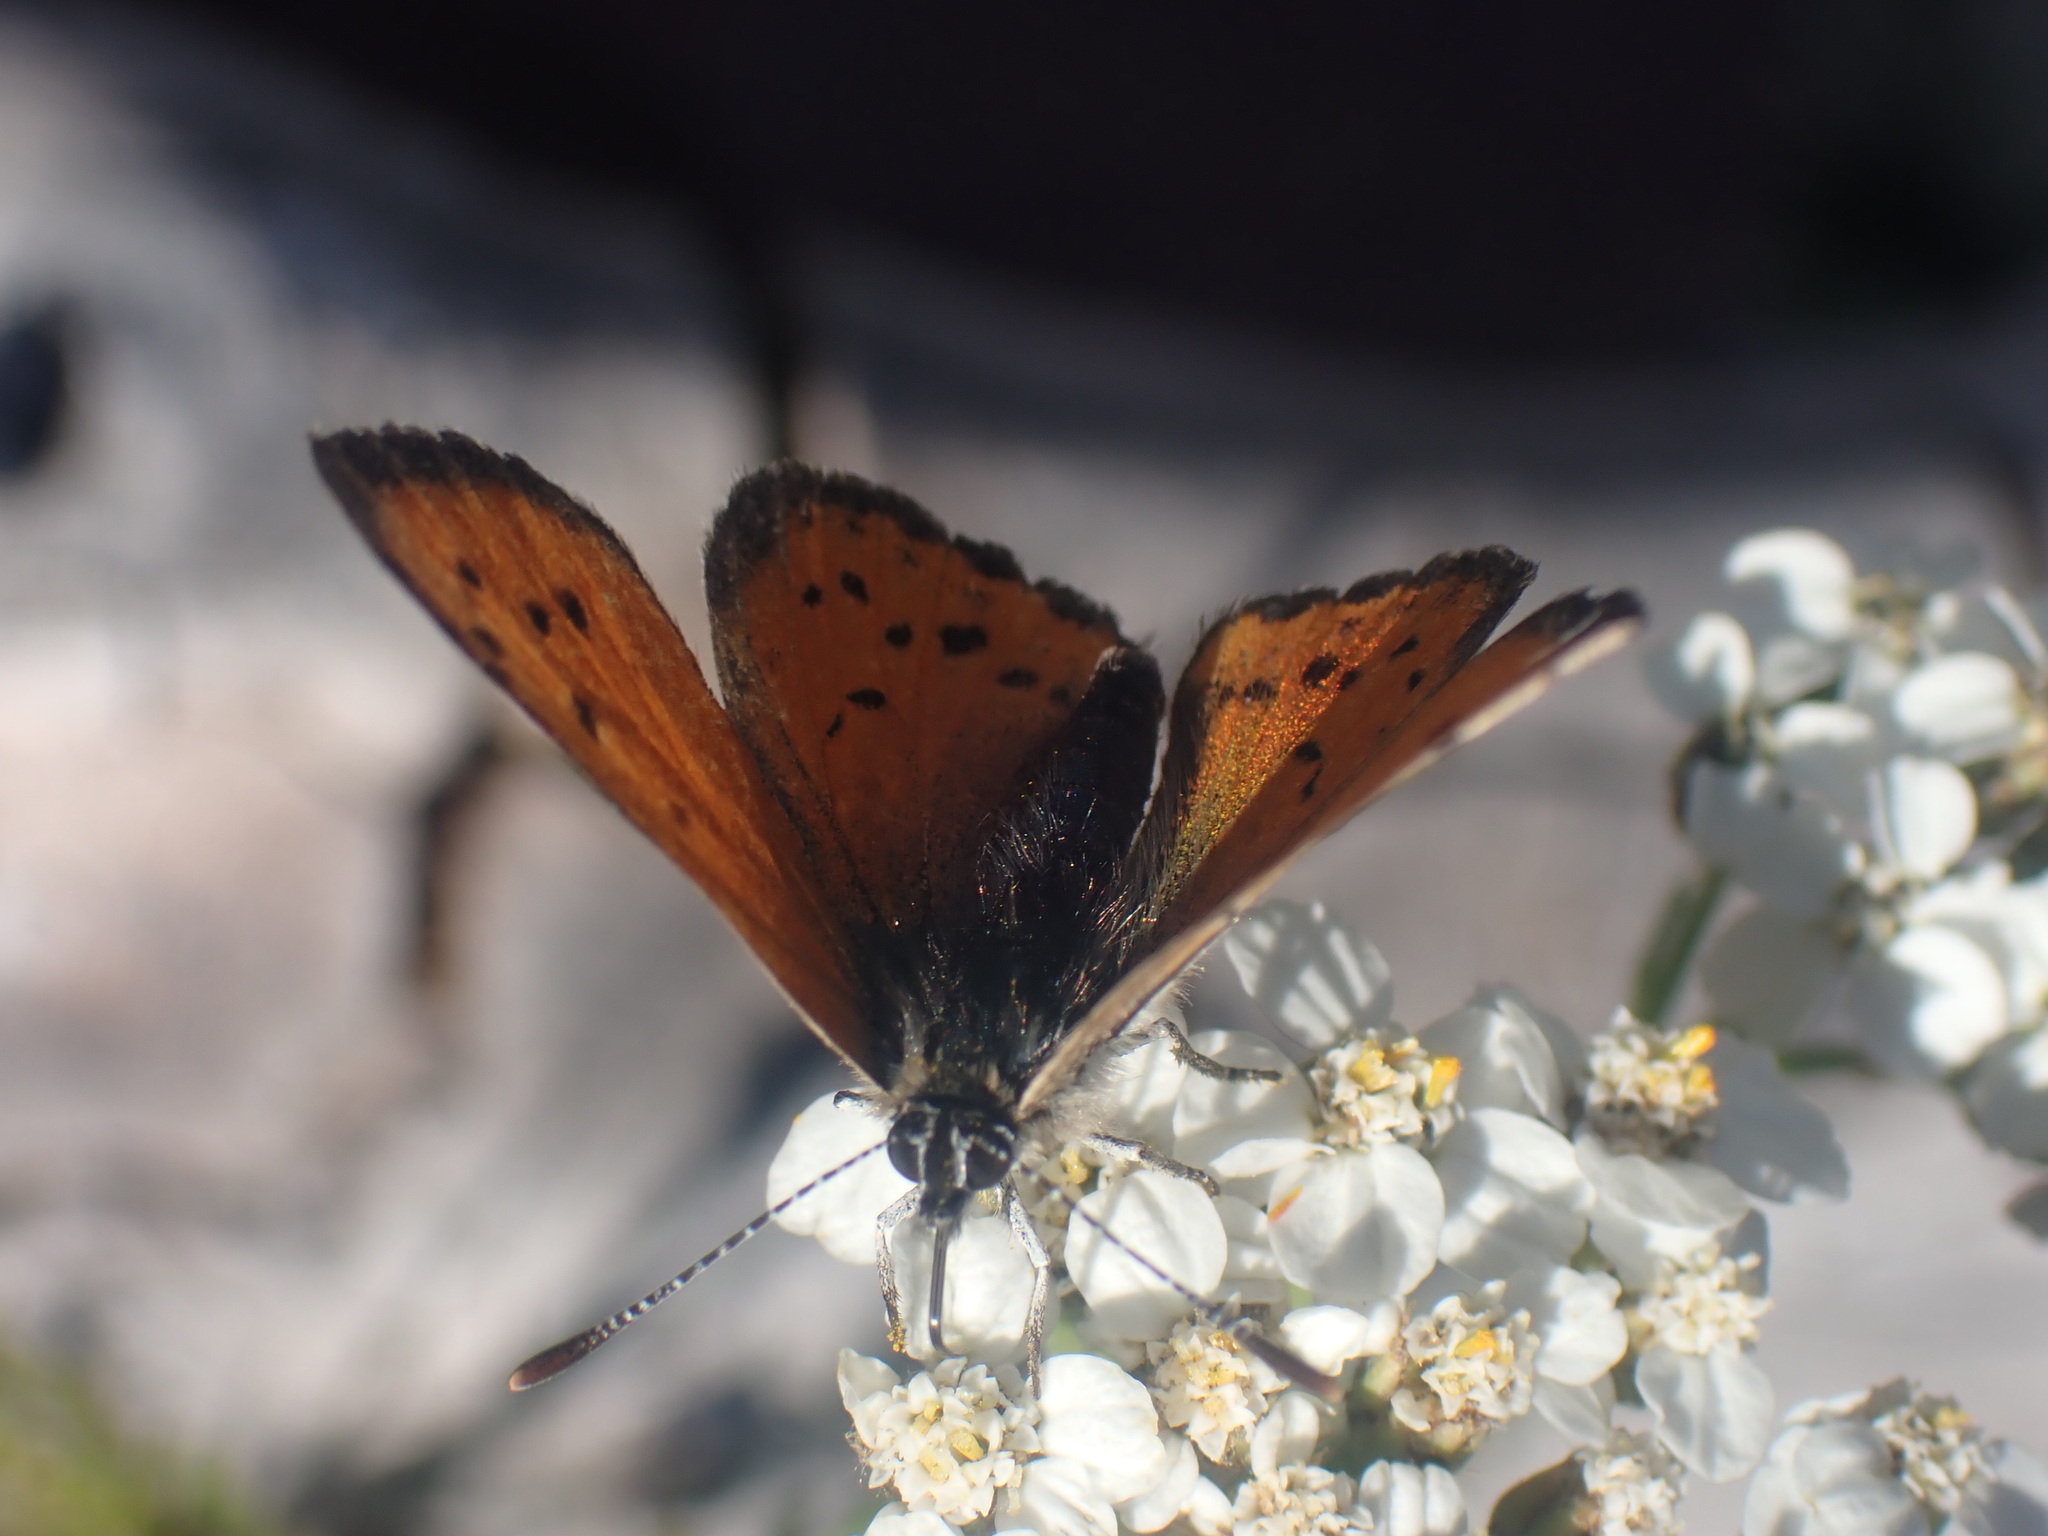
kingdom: Animalia
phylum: Arthropoda
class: Insecta
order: Lepidoptera
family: Lycaenidae
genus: Lycaena
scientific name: Lycaena cupreus
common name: Lustrous copper
